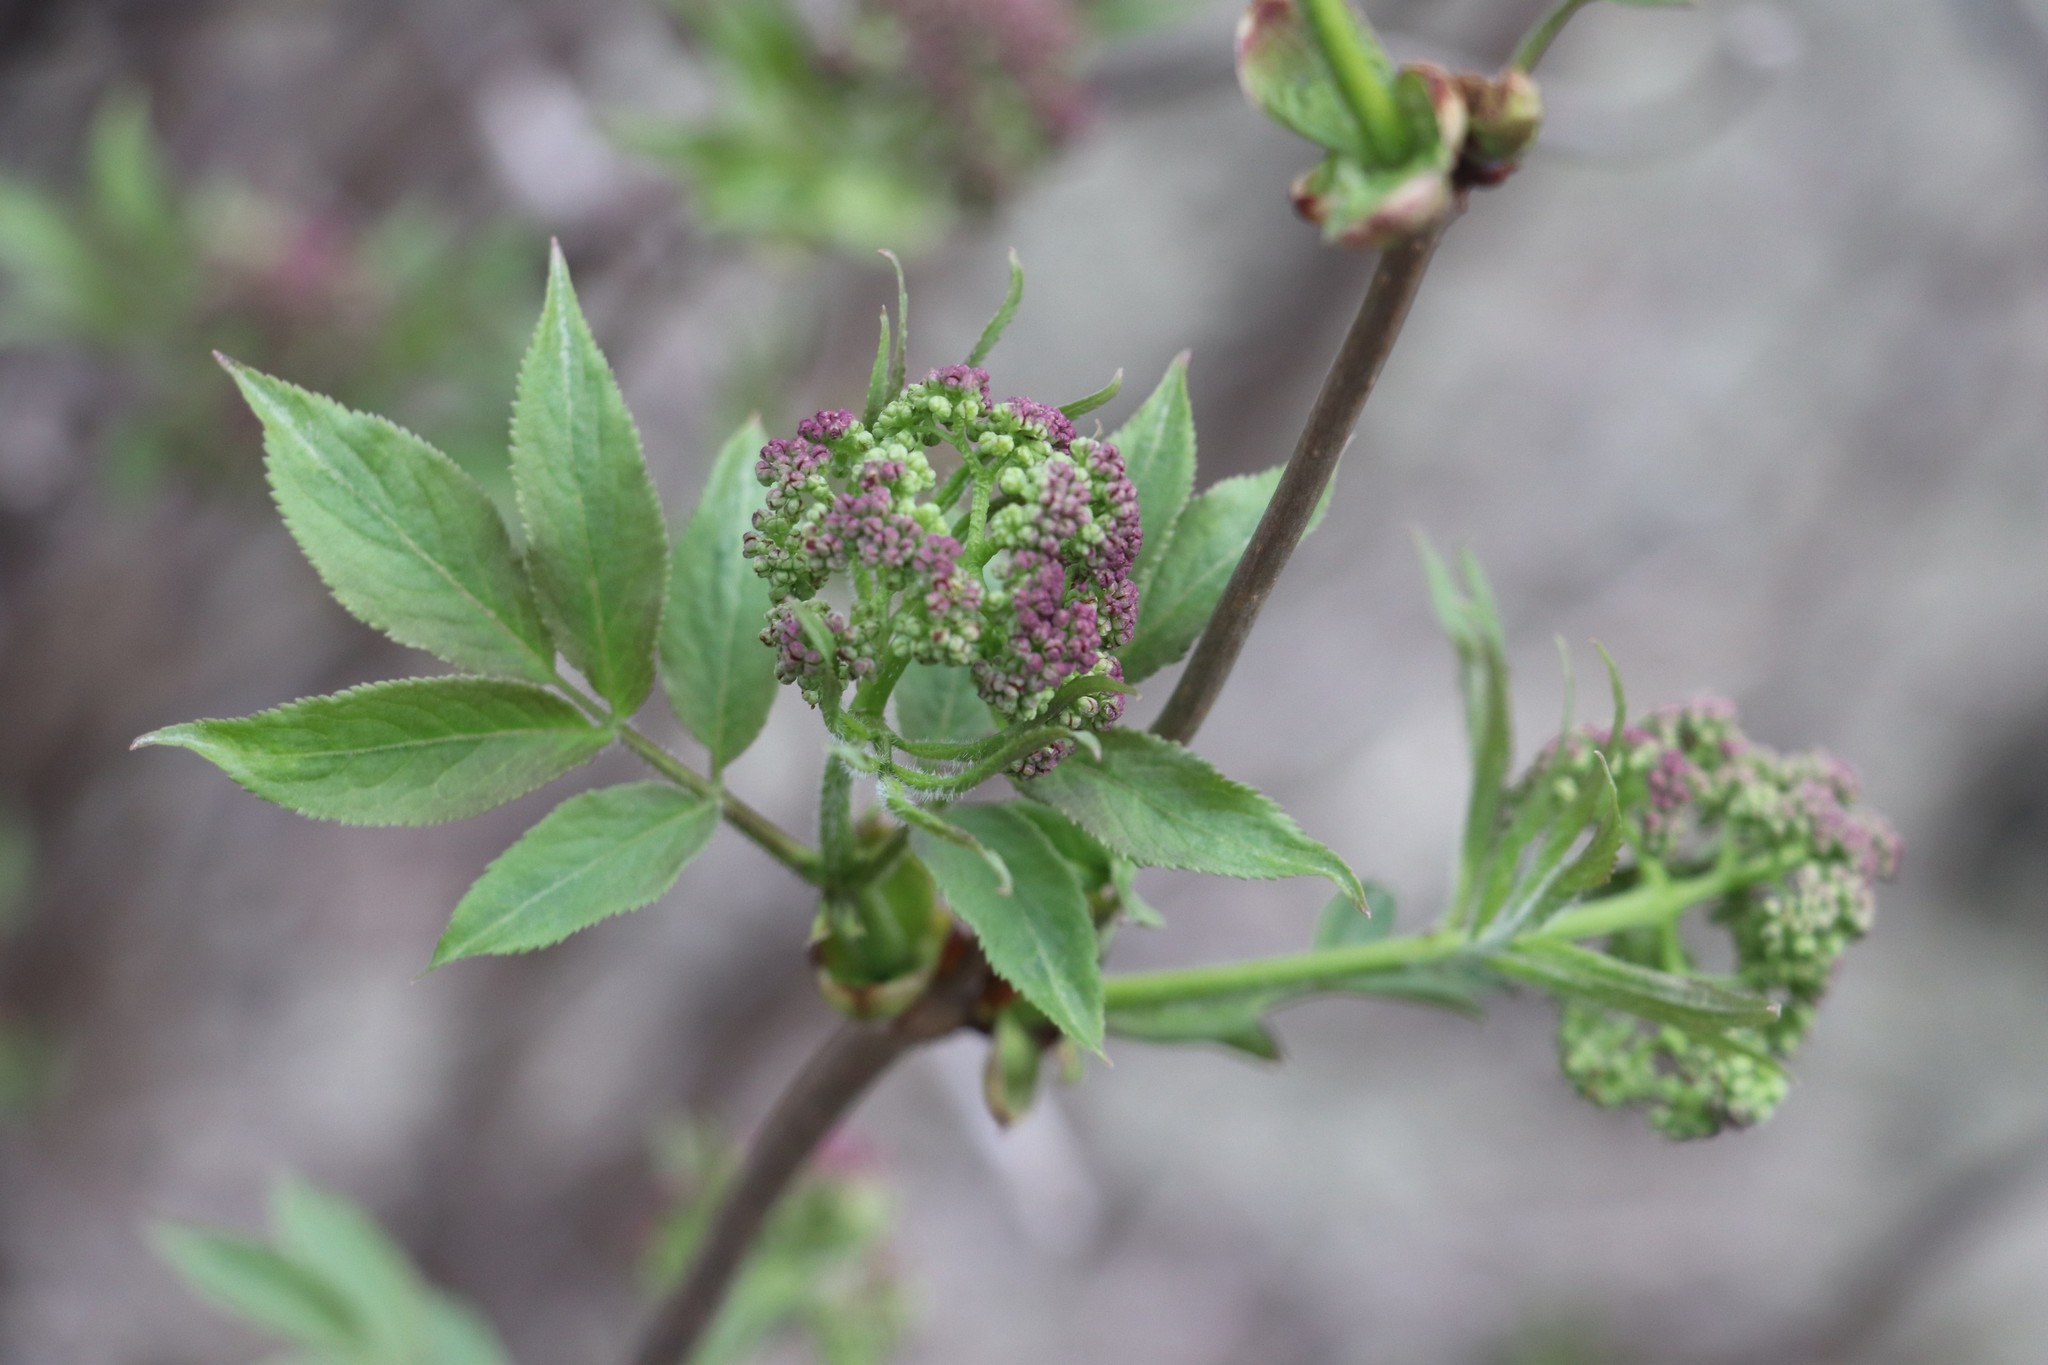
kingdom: Plantae
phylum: Tracheophyta
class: Magnoliopsida
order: Dipsacales
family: Viburnaceae
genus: Sambucus
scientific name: Sambucus sibirica
